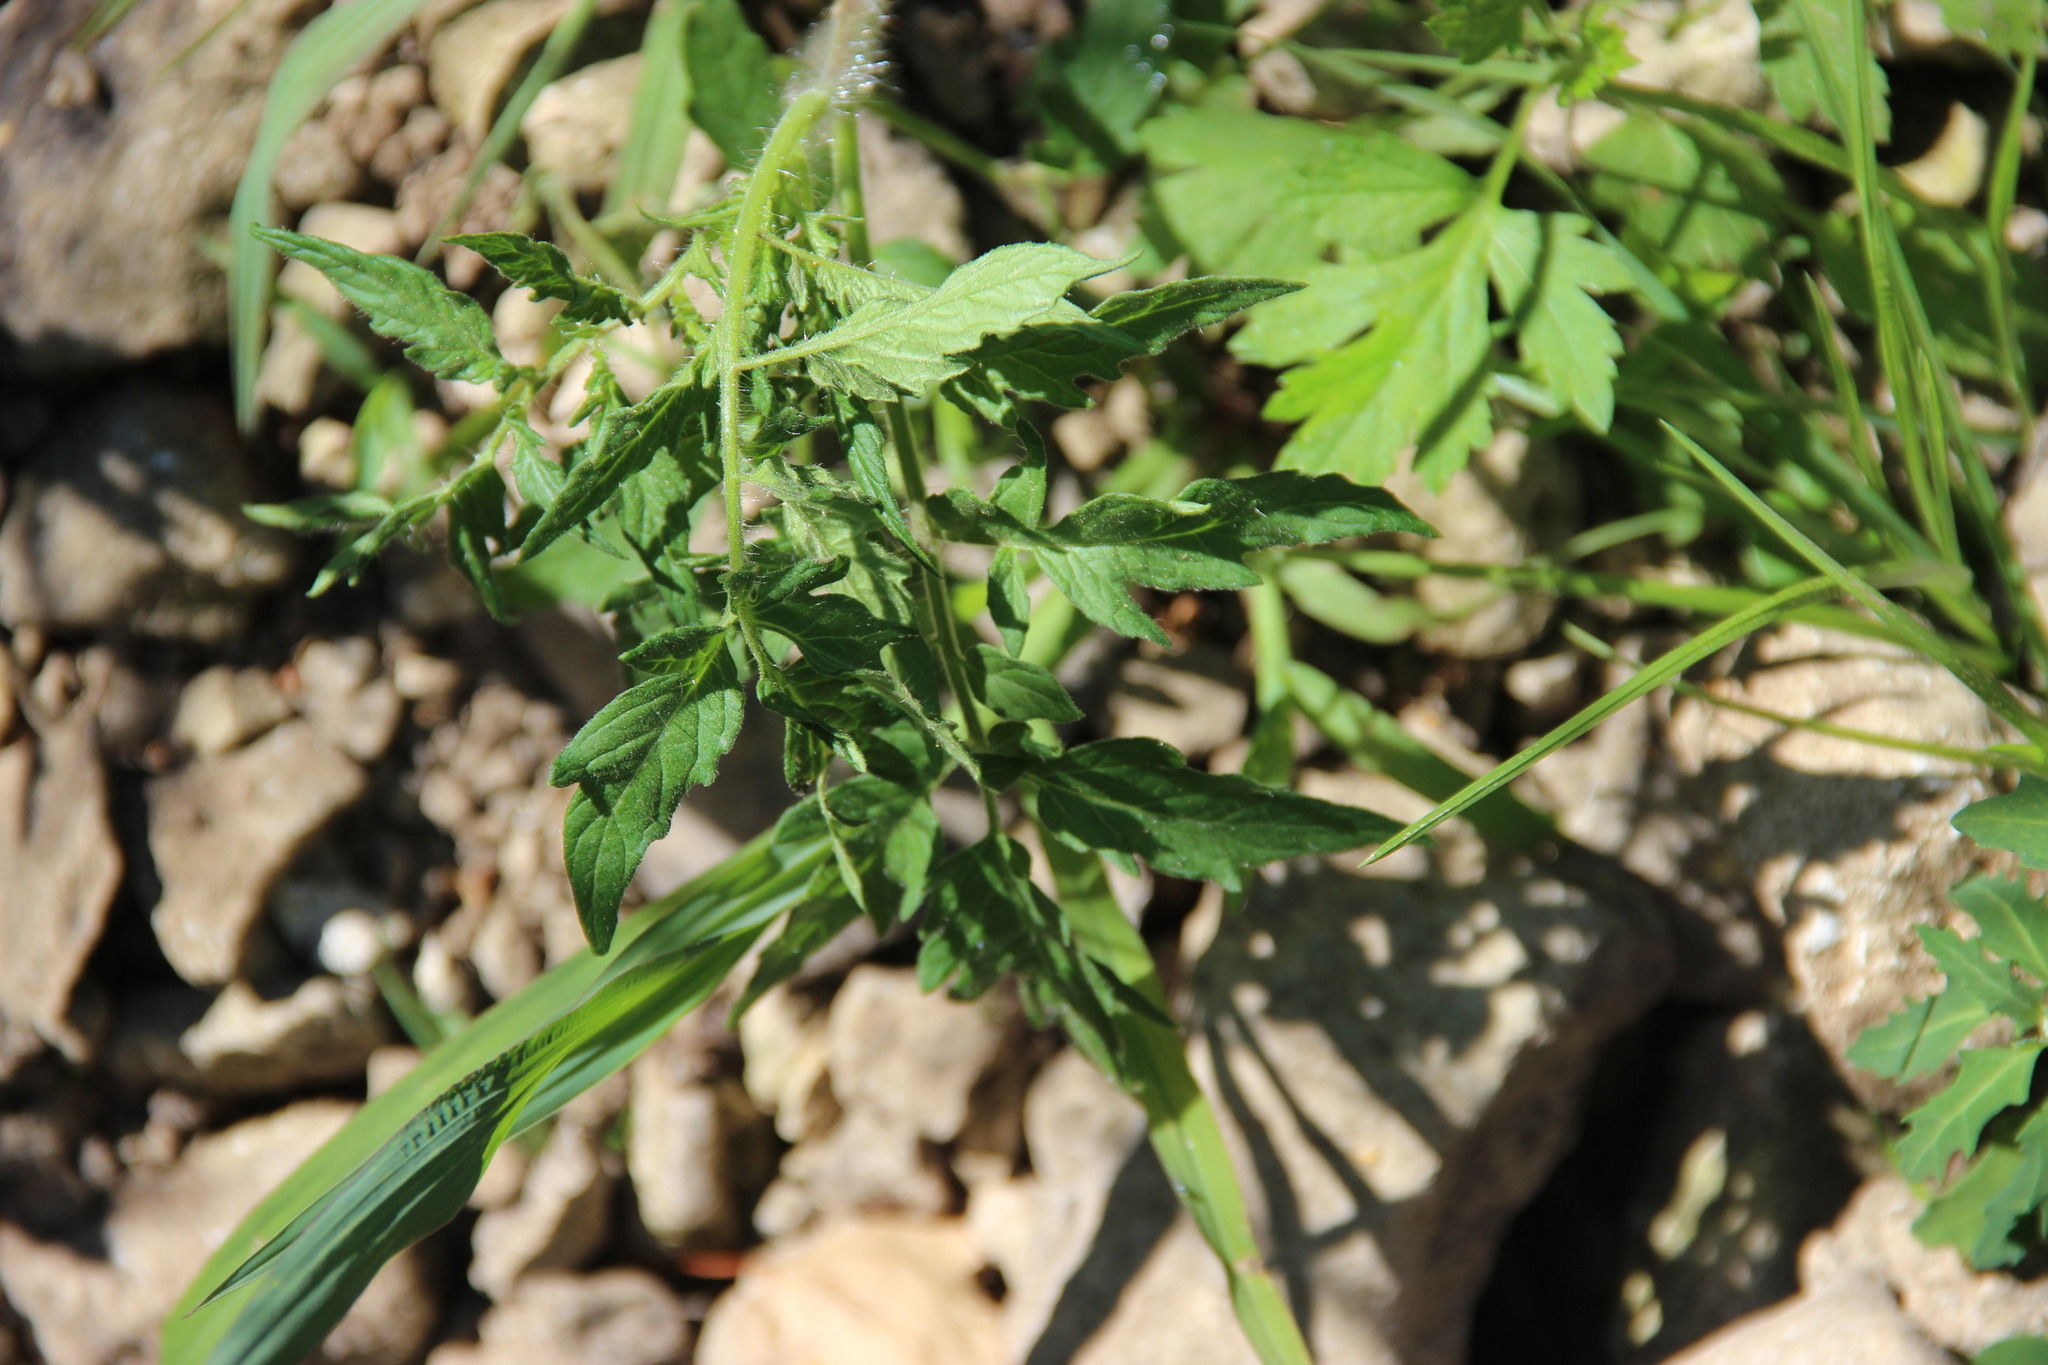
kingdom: Plantae
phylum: Tracheophyta
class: Magnoliopsida
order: Solanales
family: Solanaceae
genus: Solanum
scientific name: Solanum lycopersicum
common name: Garden tomato
